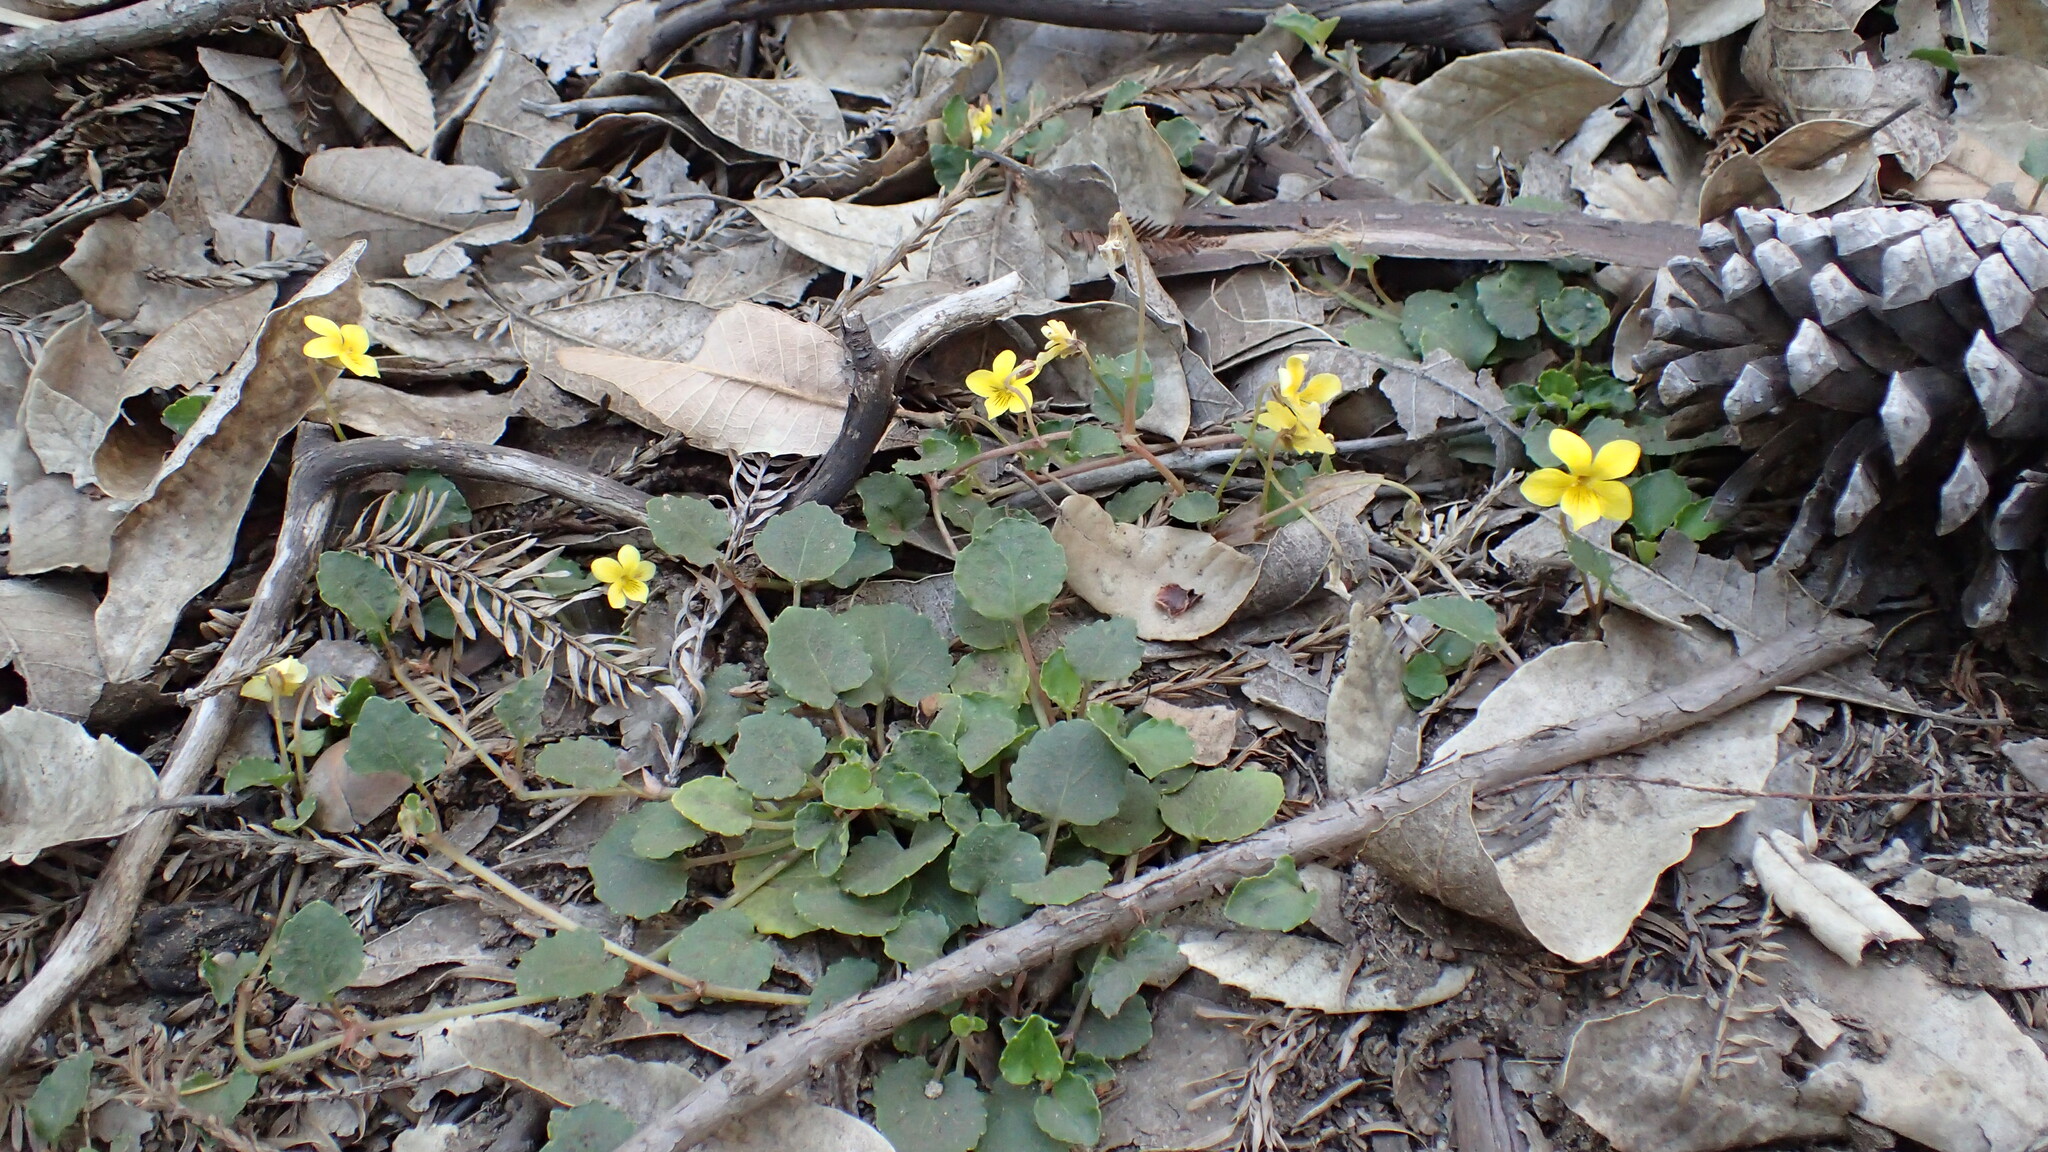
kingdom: Plantae
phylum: Tracheophyta
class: Magnoliopsida
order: Malpighiales
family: Violaceae
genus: Viola
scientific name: Viola sempervirens
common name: Evergreen violet
